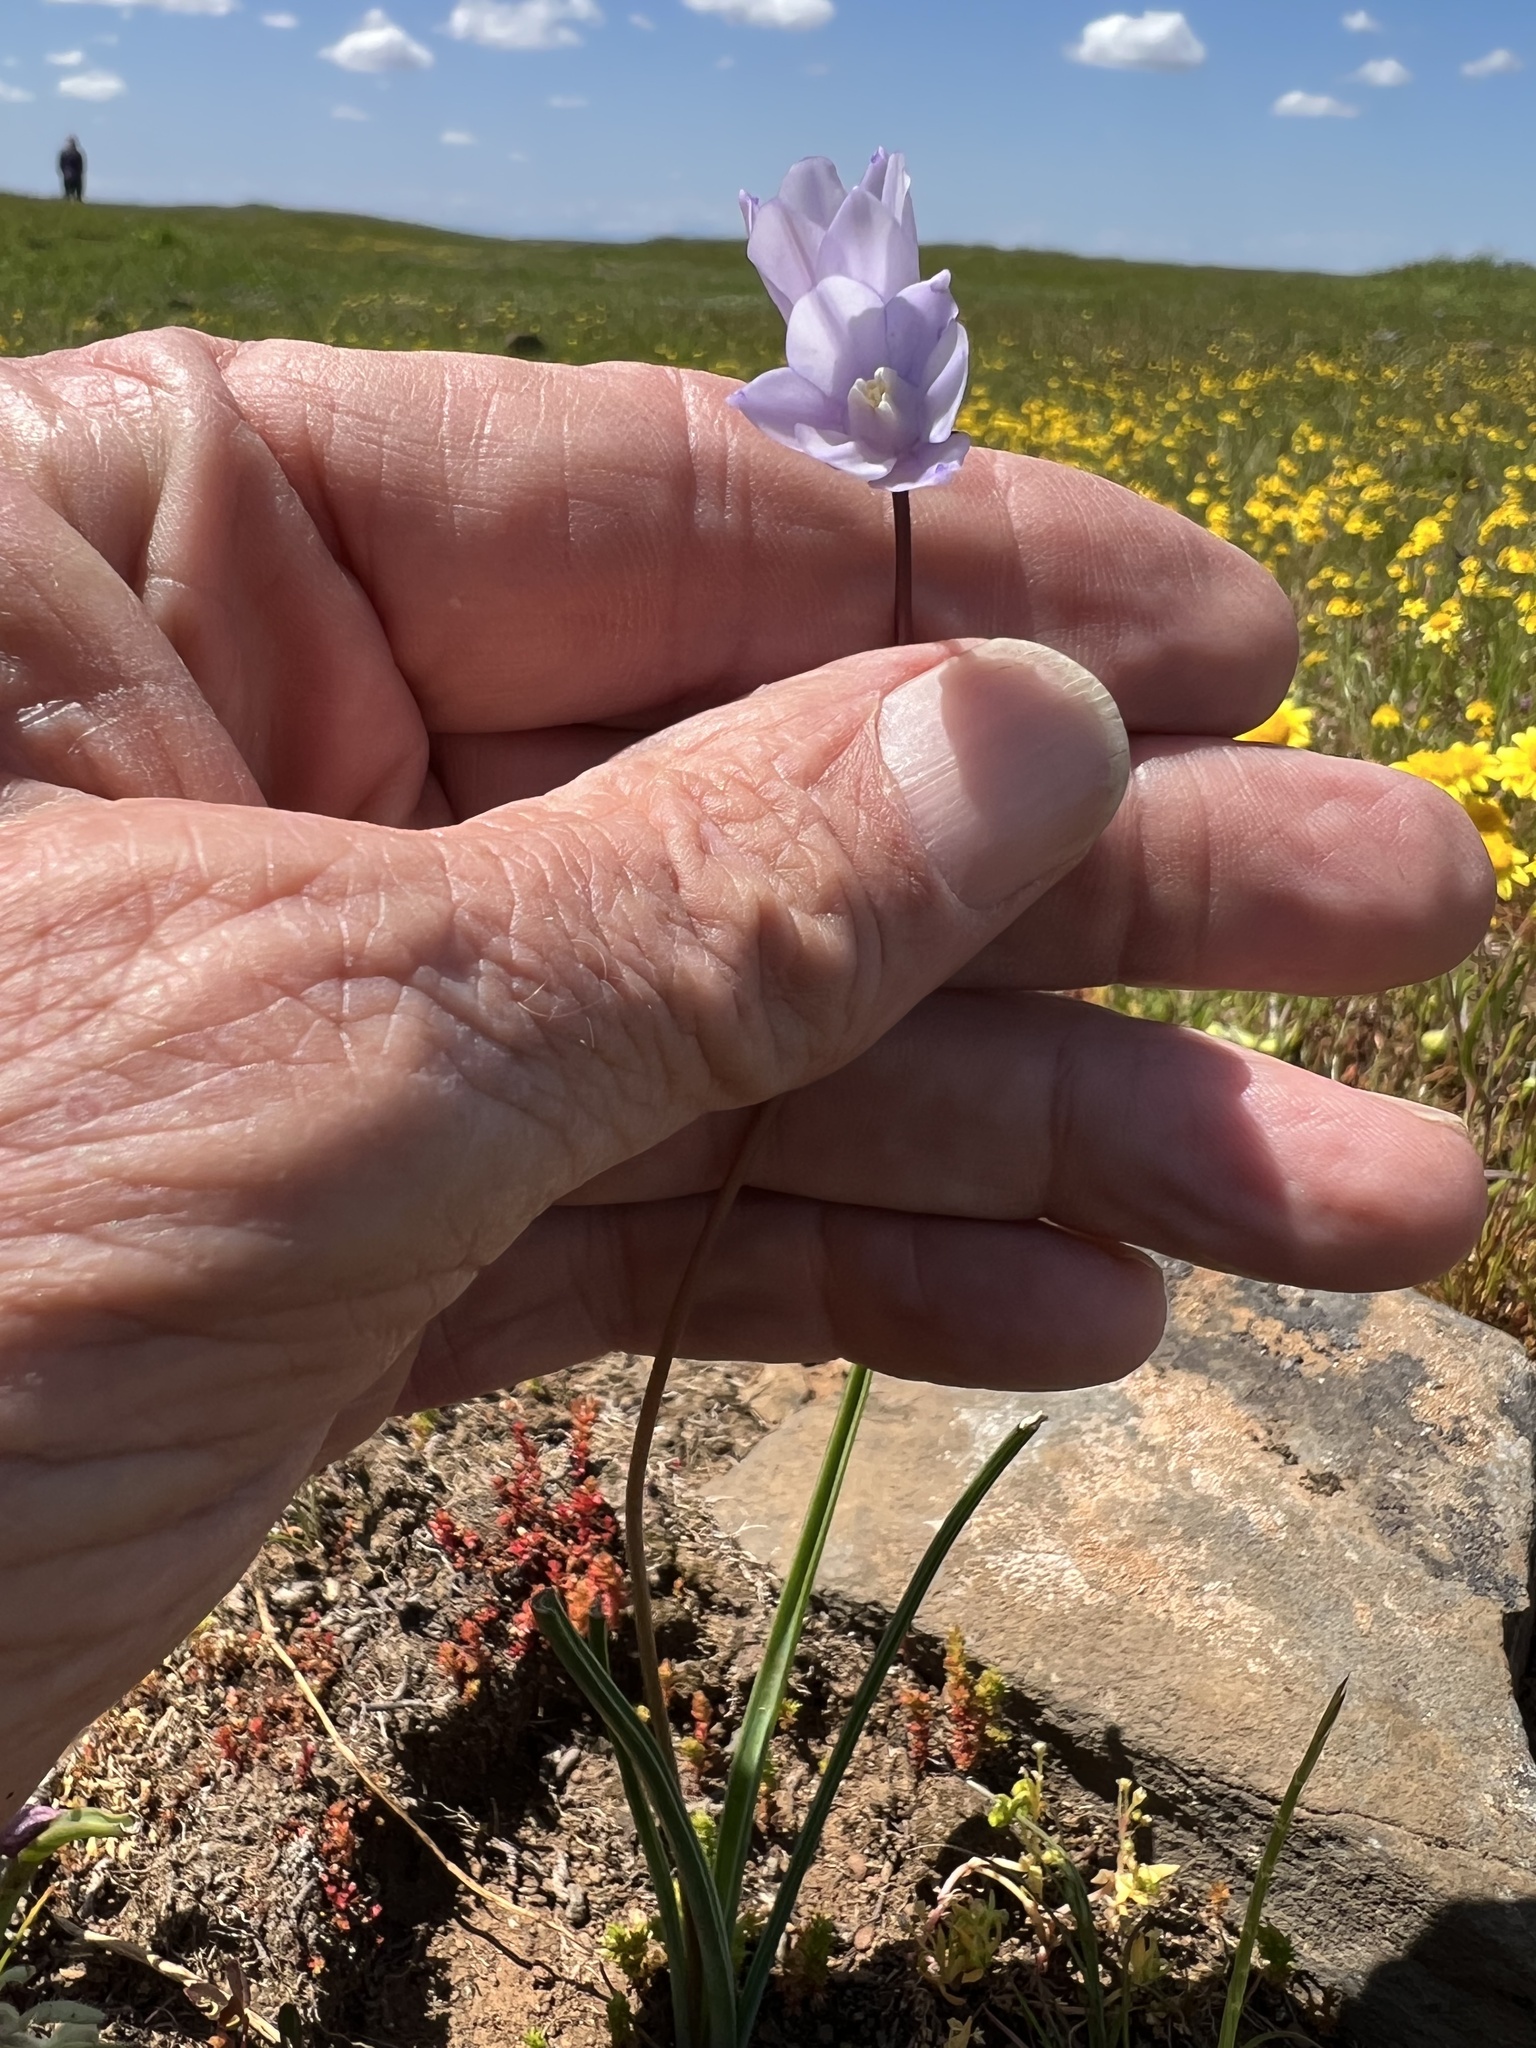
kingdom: Plantae
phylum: Tracheophyta
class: Liliopsida
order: Asparagales
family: Asparagaceae
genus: Dipterostemon
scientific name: Dipterostemon capitatus
